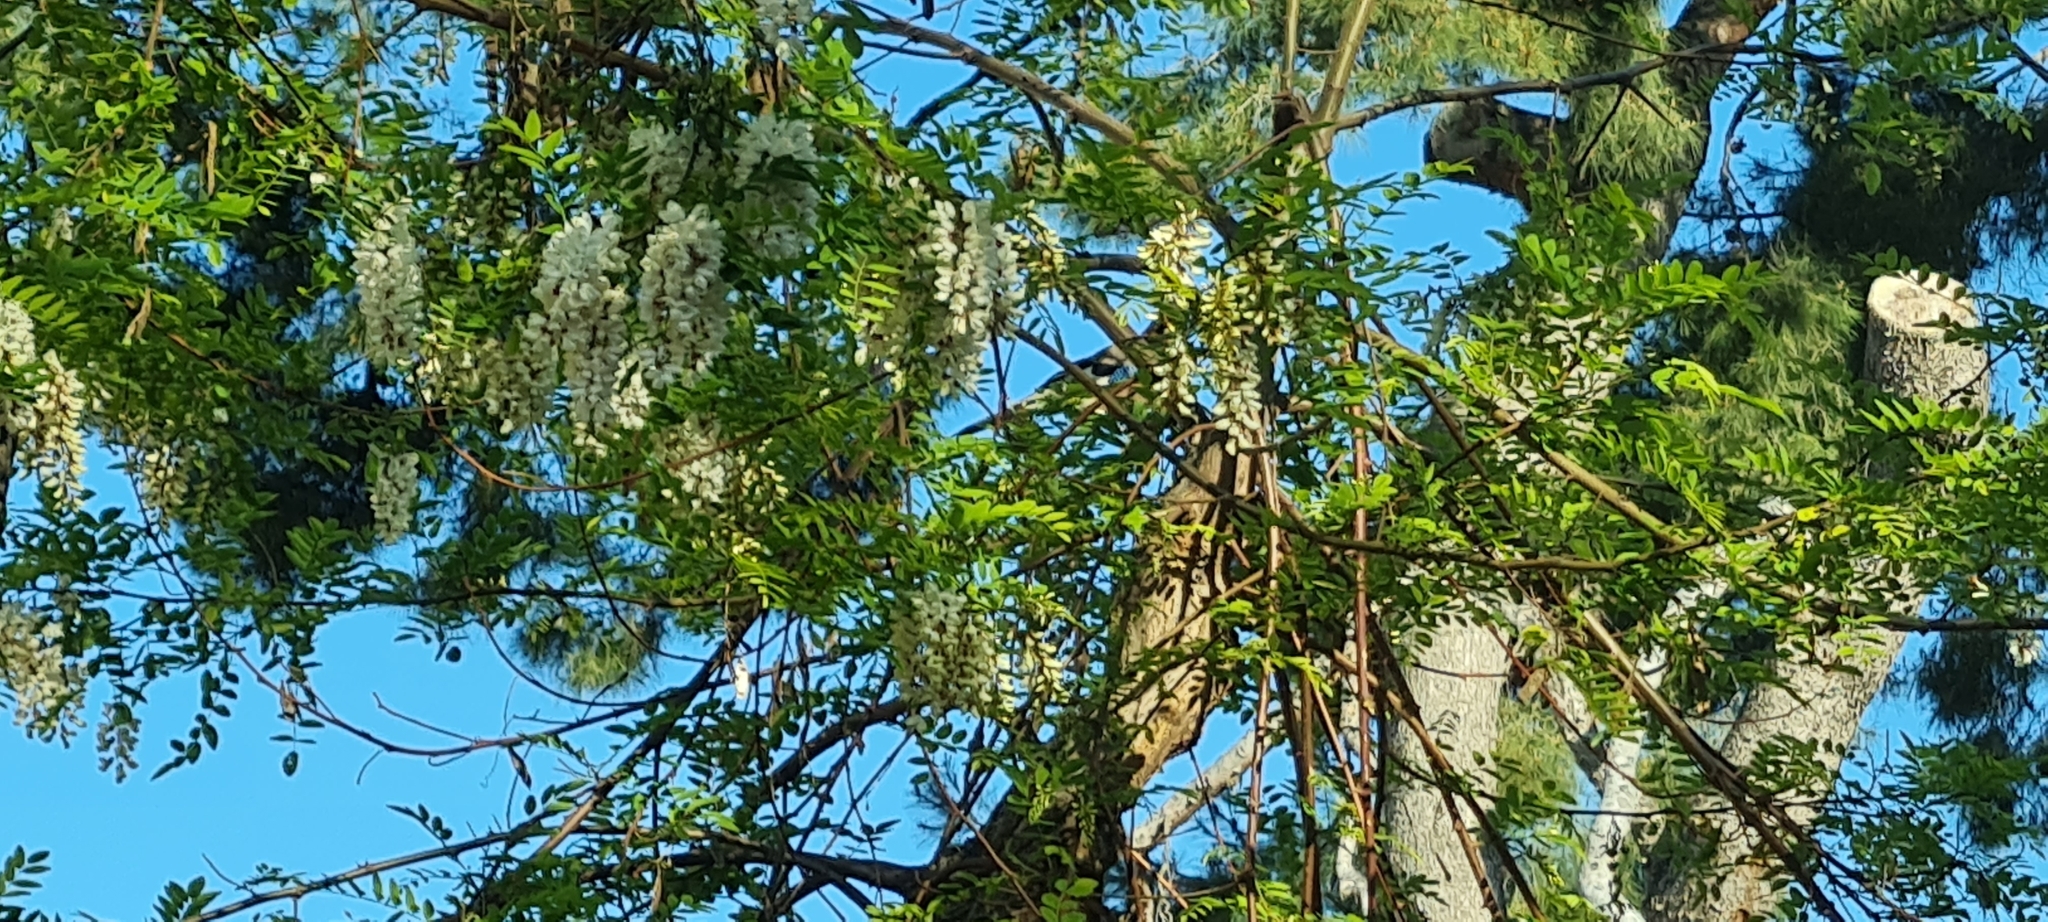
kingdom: Animalia
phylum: Chordata
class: Aves
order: Passeriformes
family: Corvidae
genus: Garrulus
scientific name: Garrulus glandarius
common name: Eurasian jay
